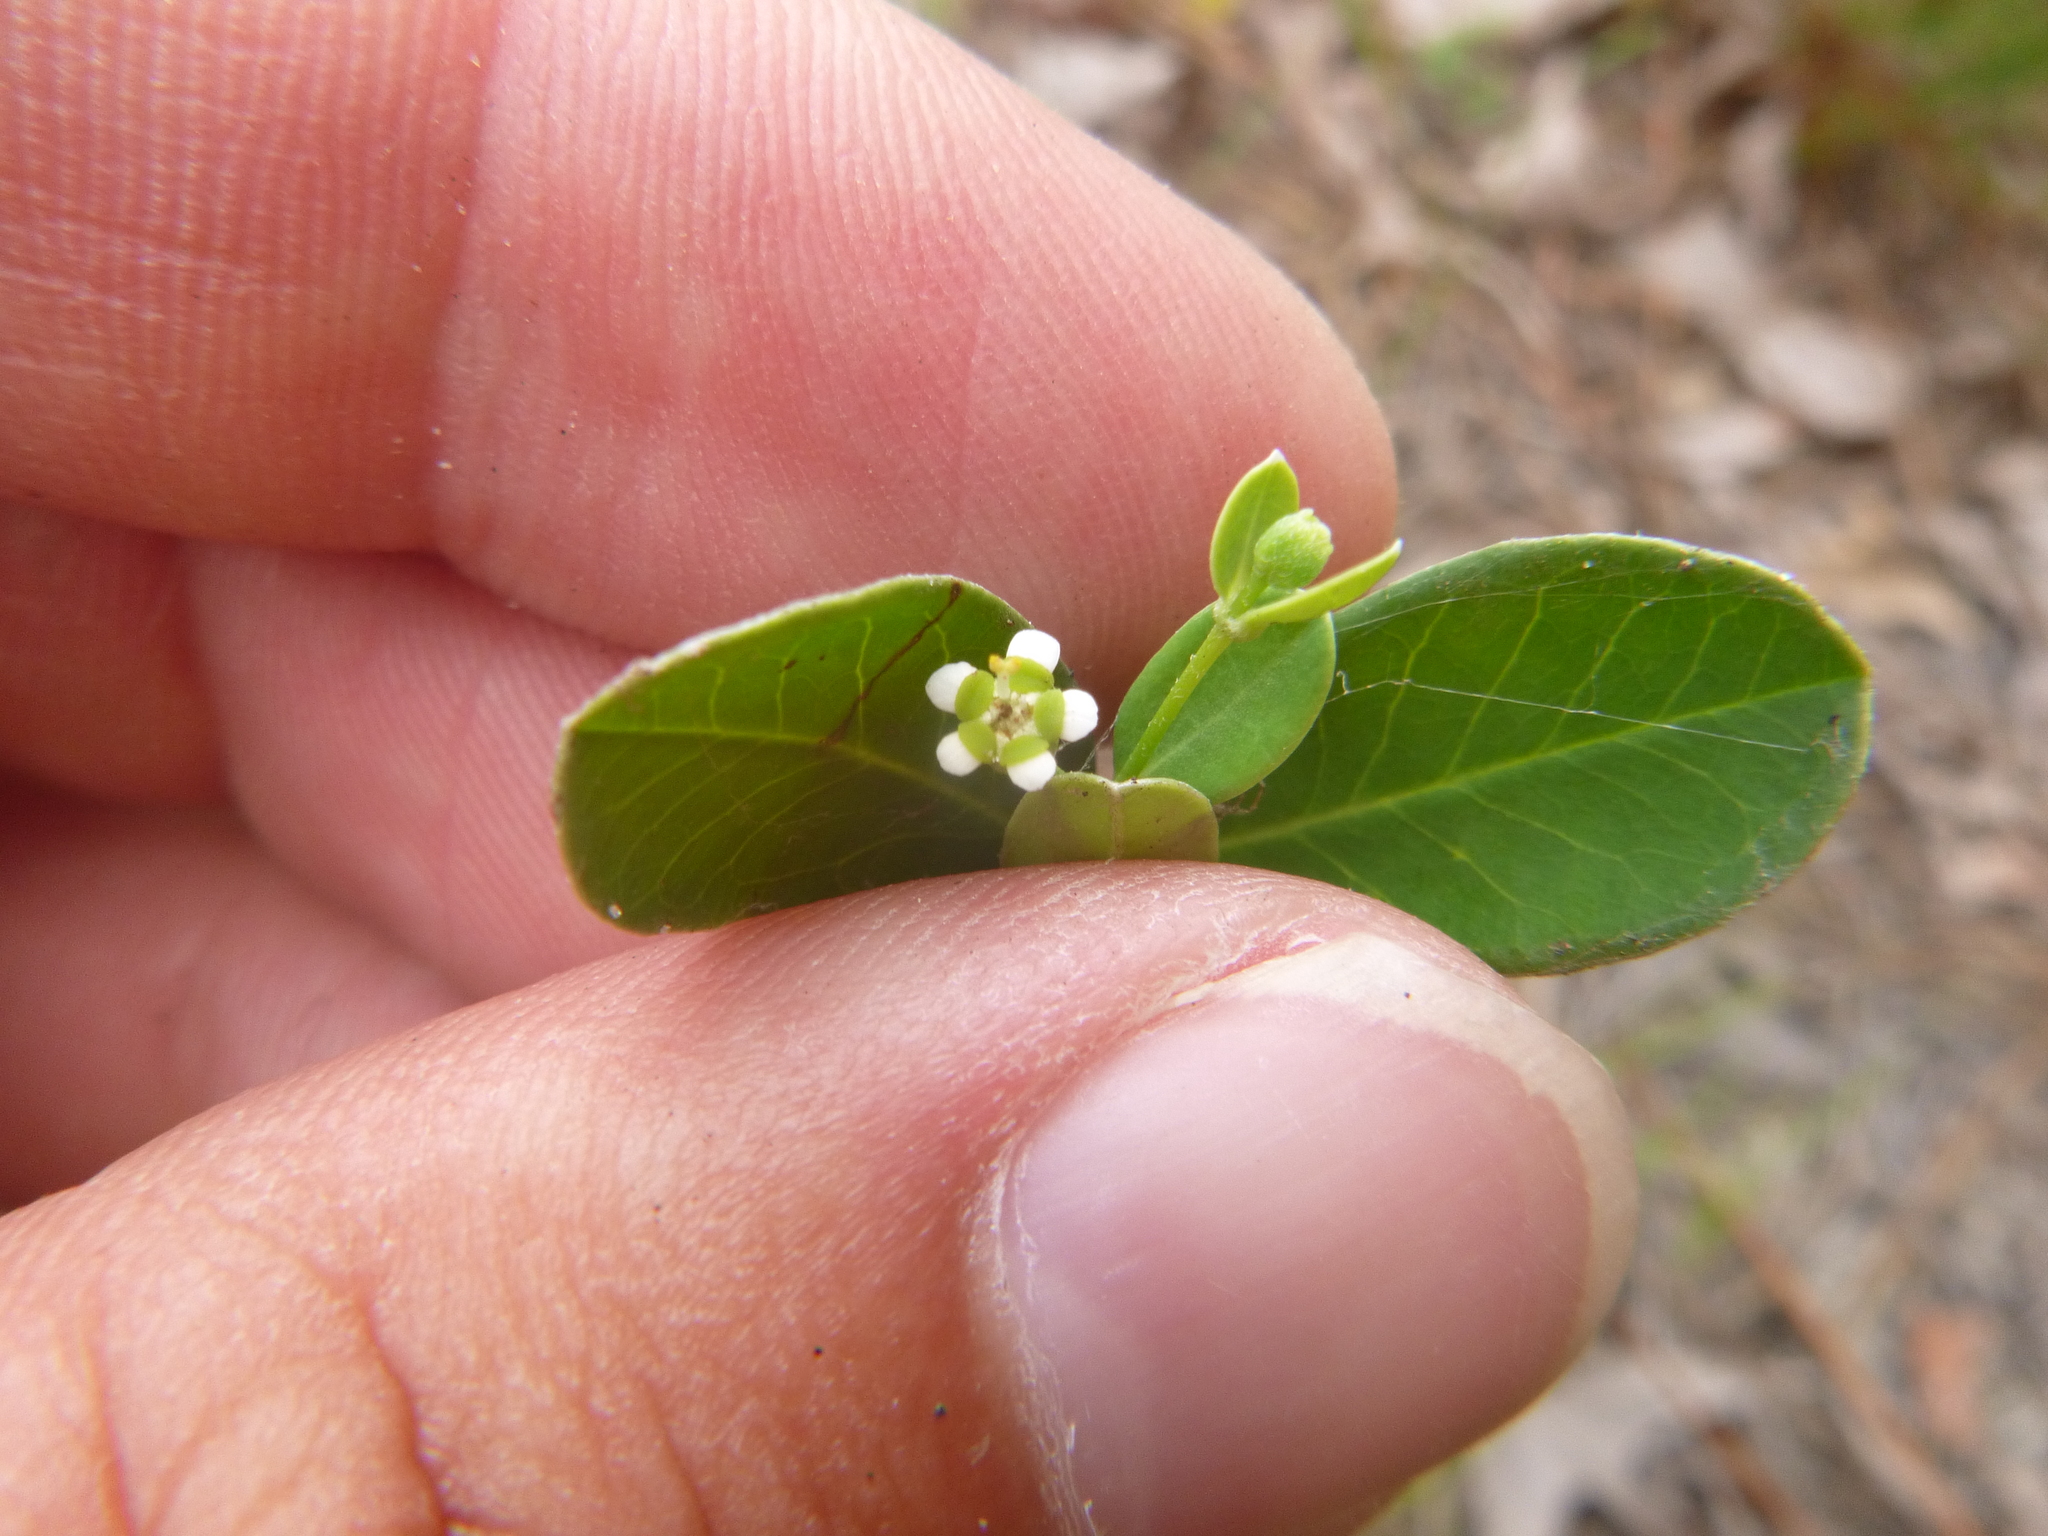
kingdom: Plantae
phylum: Tracheophyta
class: Magnoliopsida
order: Malpighiales
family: Euphorbiaceae
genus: Euphorbia
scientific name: Euphorbia pubentissima
